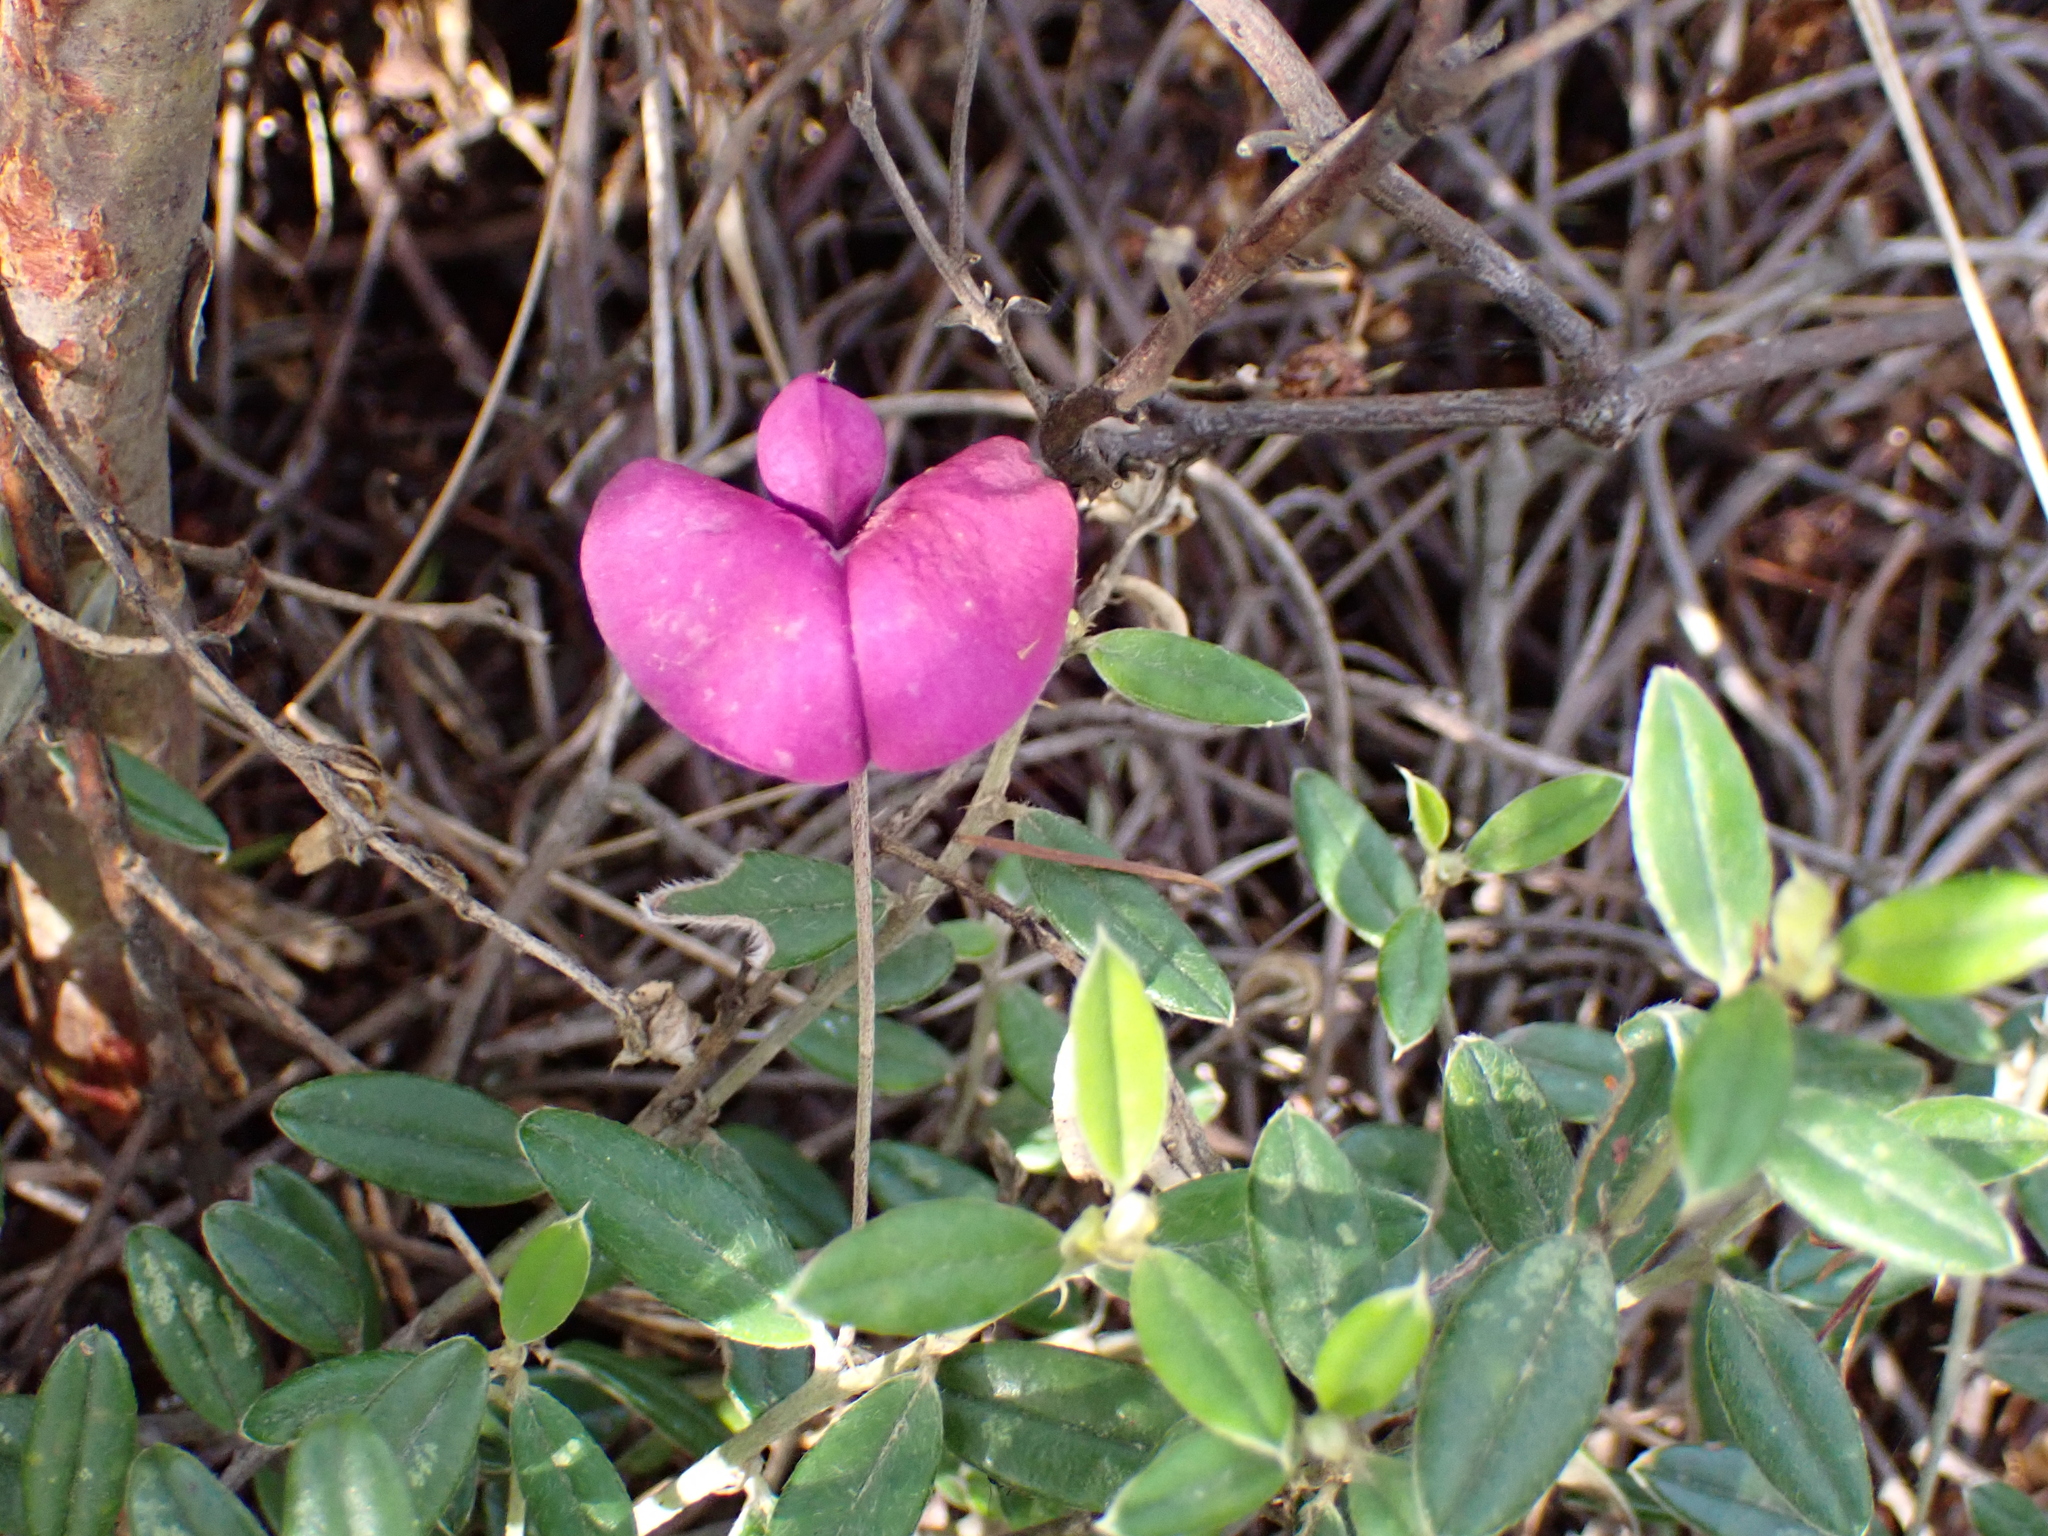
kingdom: Plantae
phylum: Tracheophyta
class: Magnoliopsida
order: Fabales
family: Fabaceae
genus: Podalyria
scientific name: Podalyria buxifolia
